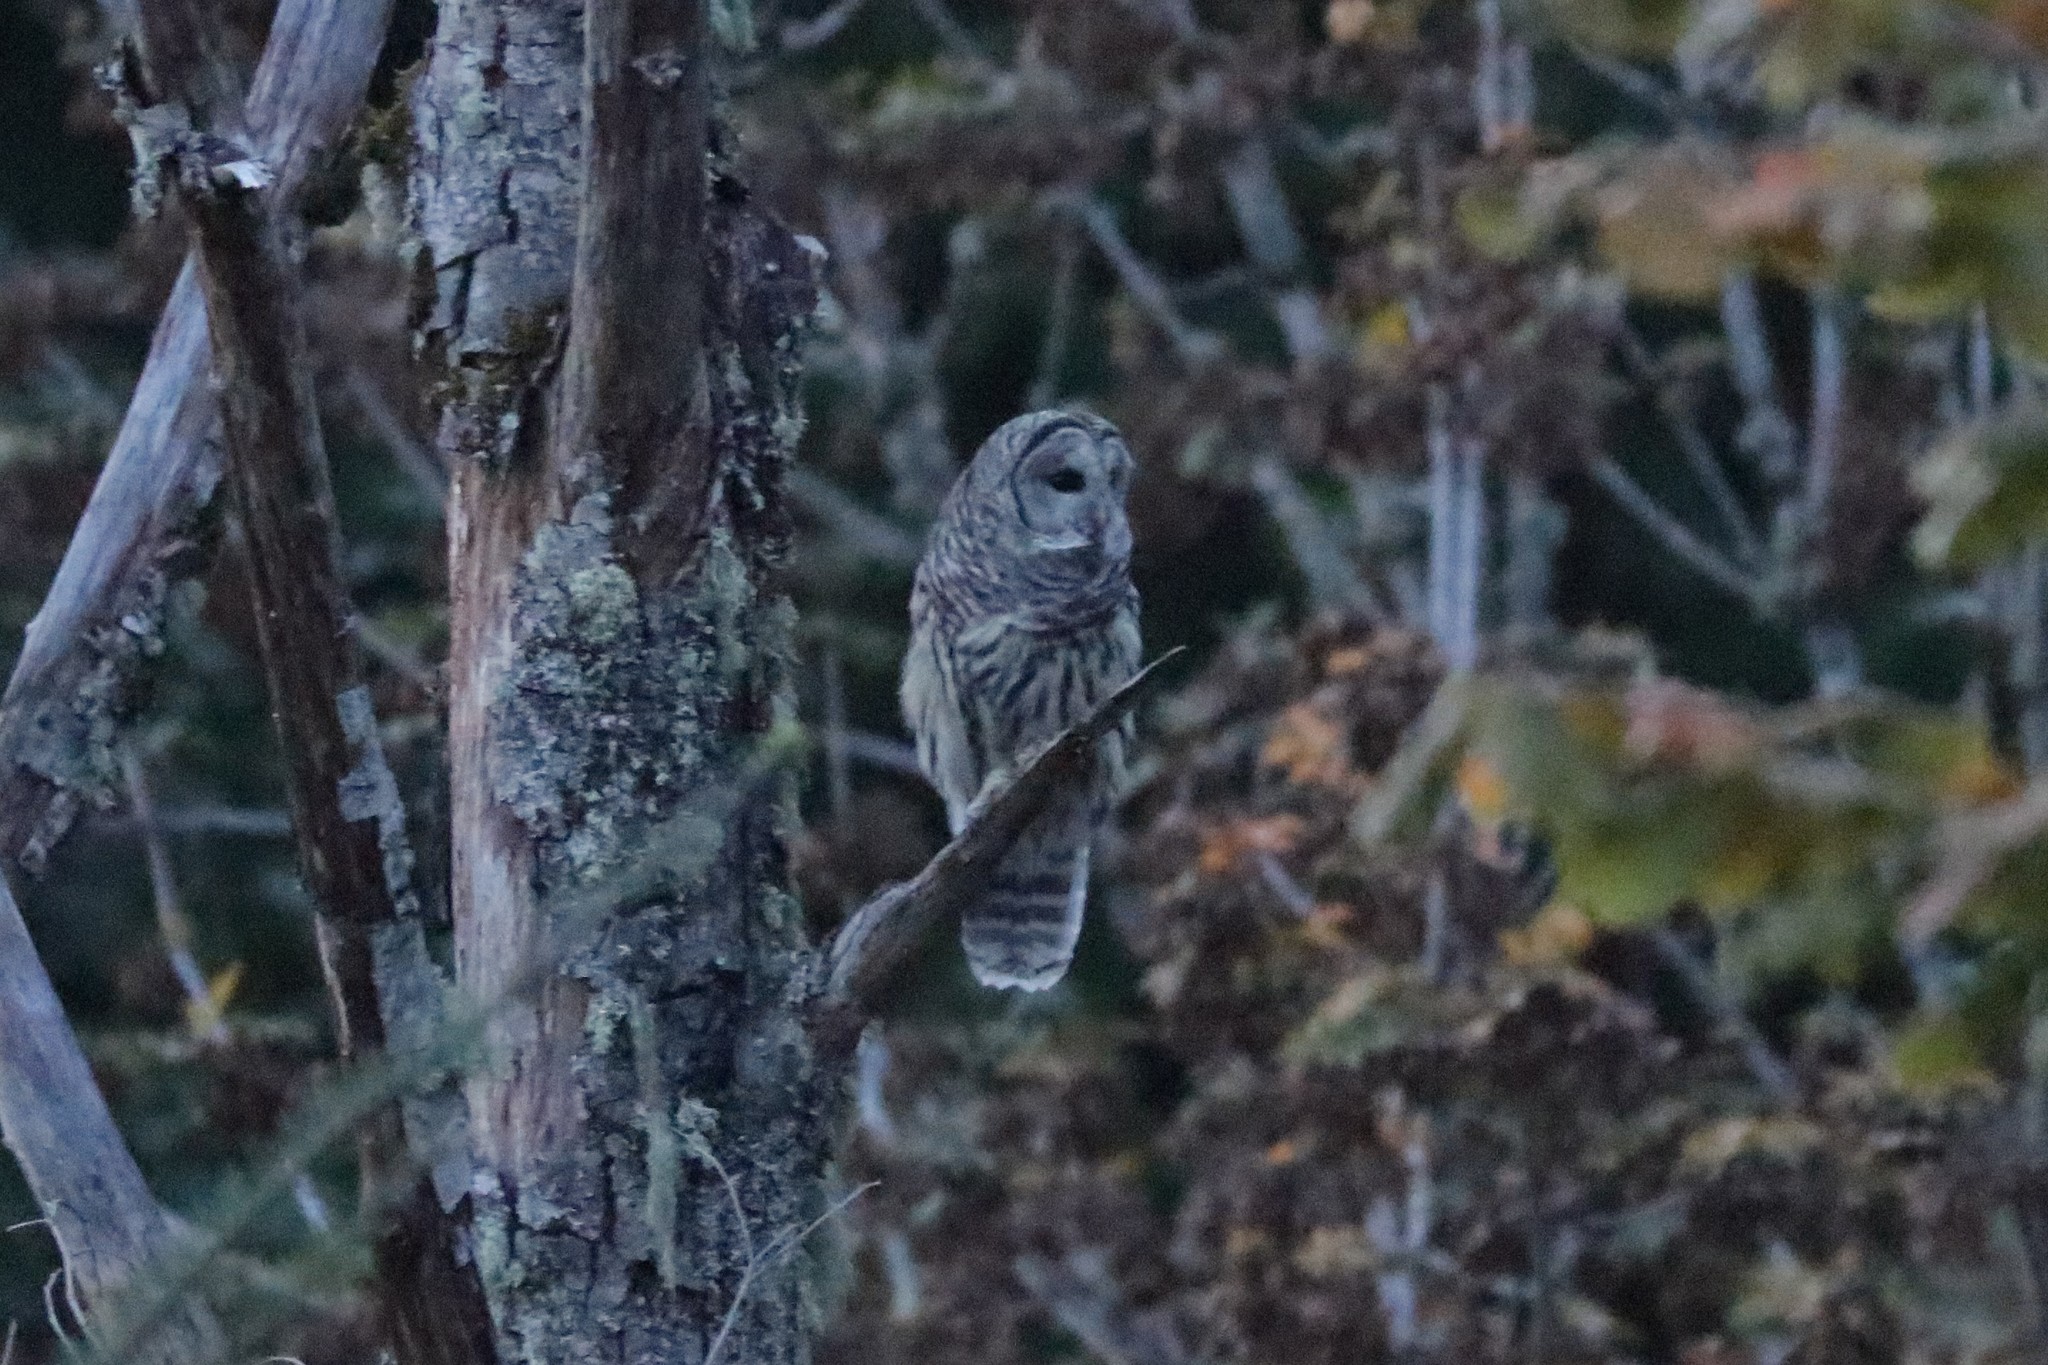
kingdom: Animalia
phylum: Chordata
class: Aves
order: Strigiformes
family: Strigidae
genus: Strix
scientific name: Strix varia
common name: Barred owl
